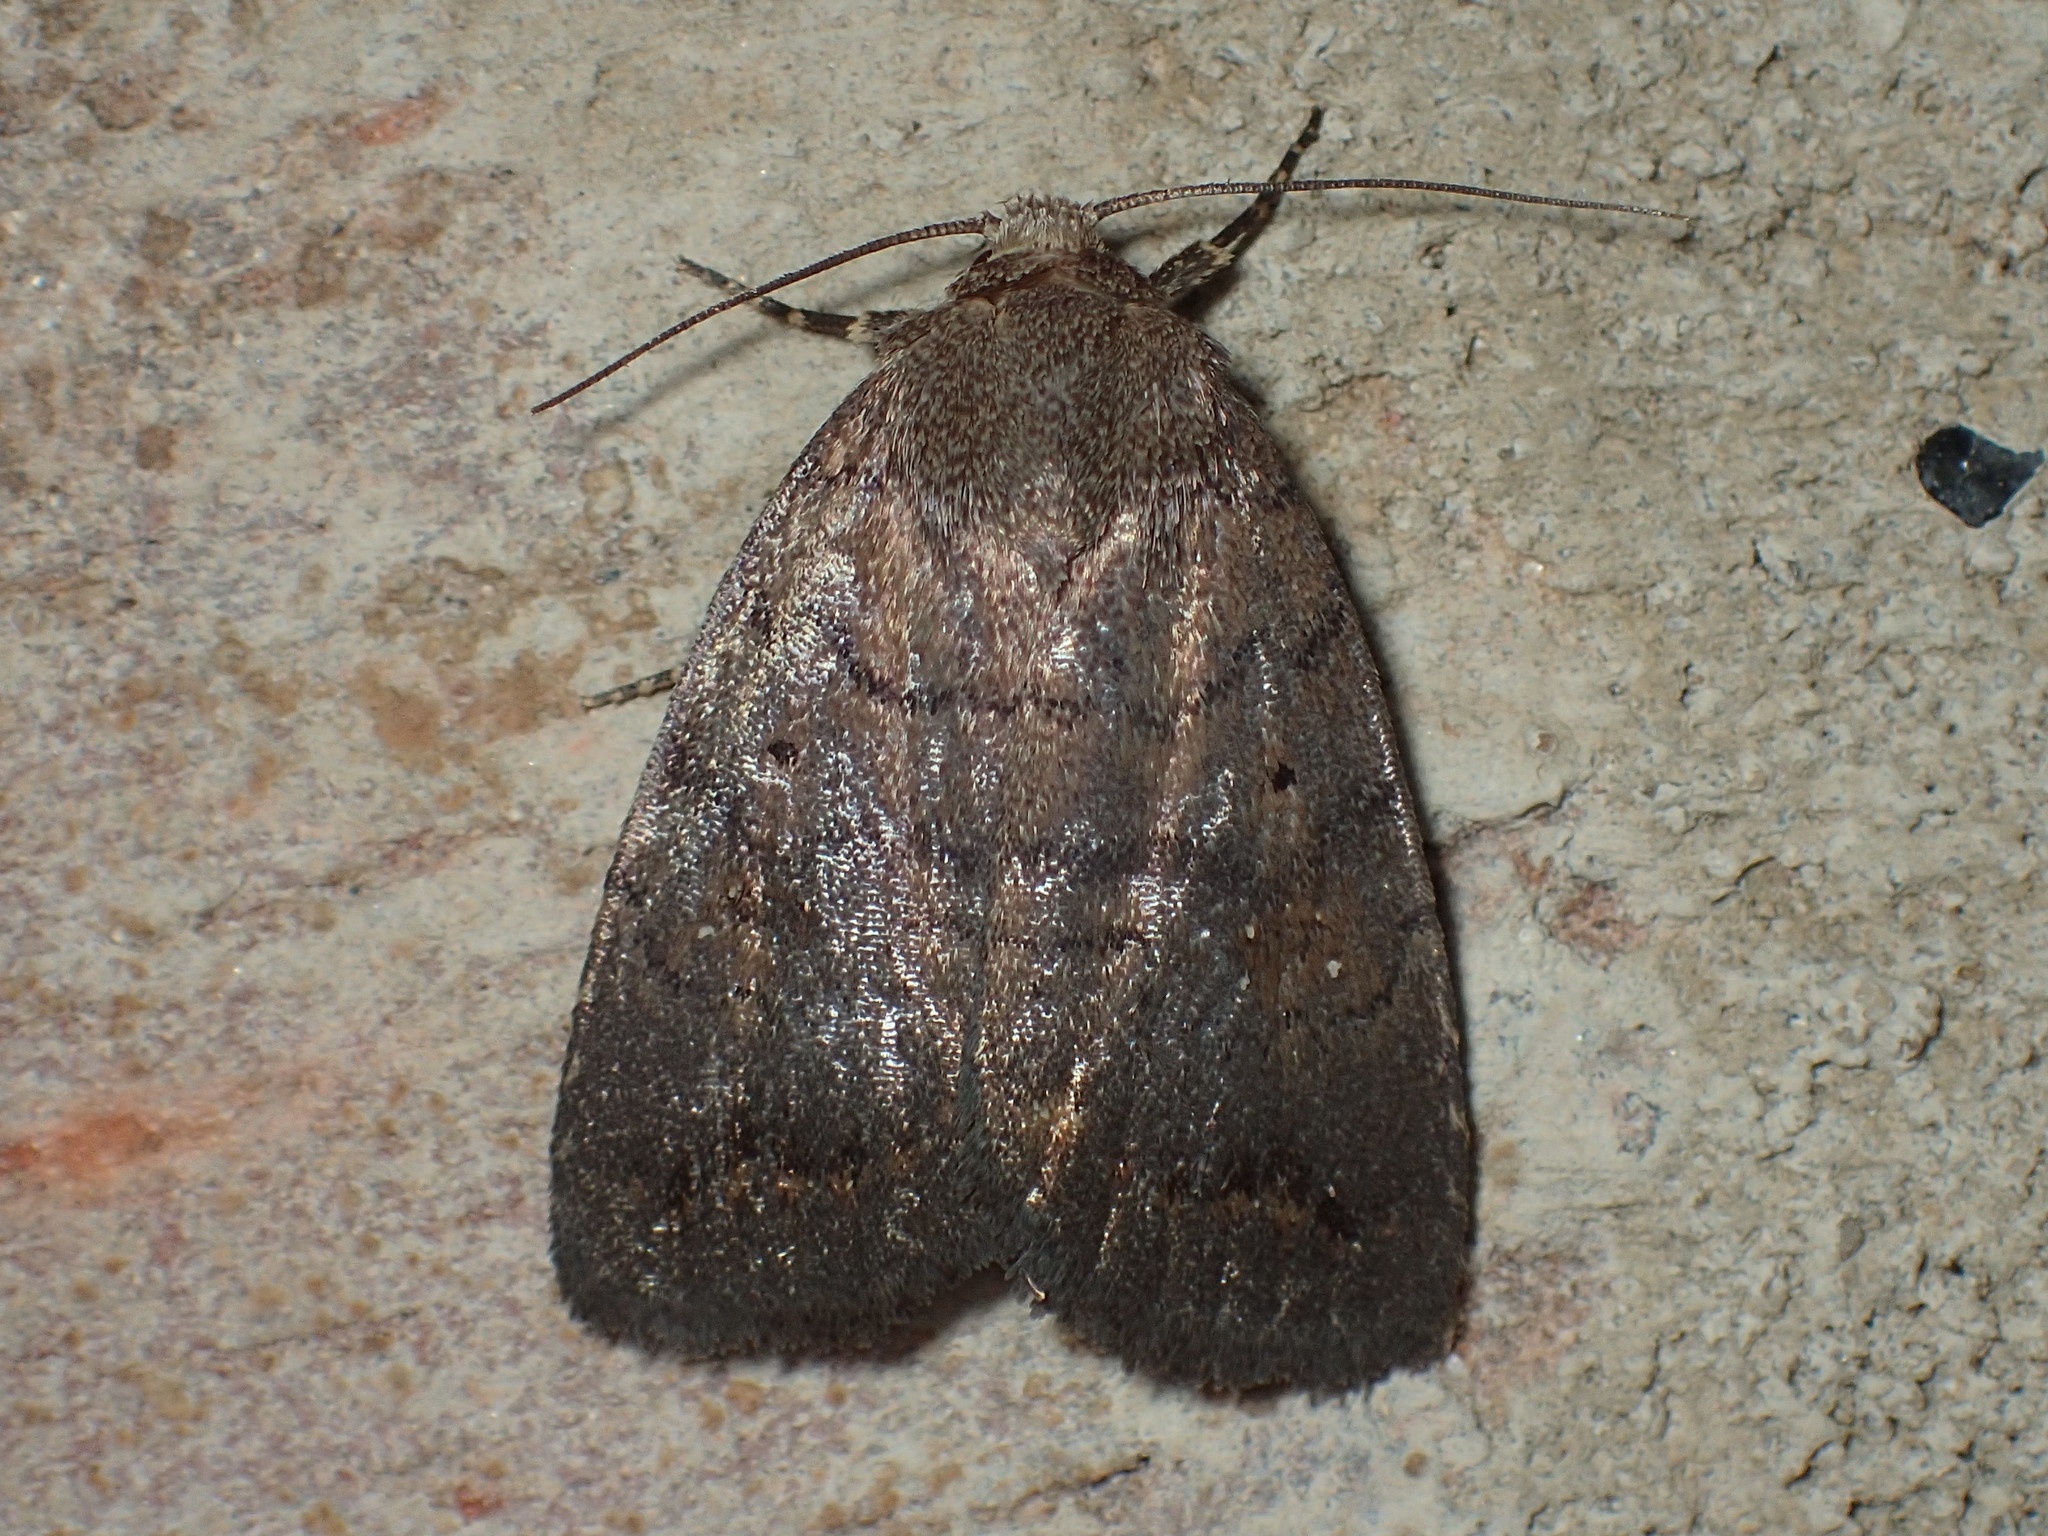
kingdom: Animalia
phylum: Arthropoda
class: Insecta
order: Lepidoptera
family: Noctuidae
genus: Athetis
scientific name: Athetis tarda
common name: Slowpoke moth
